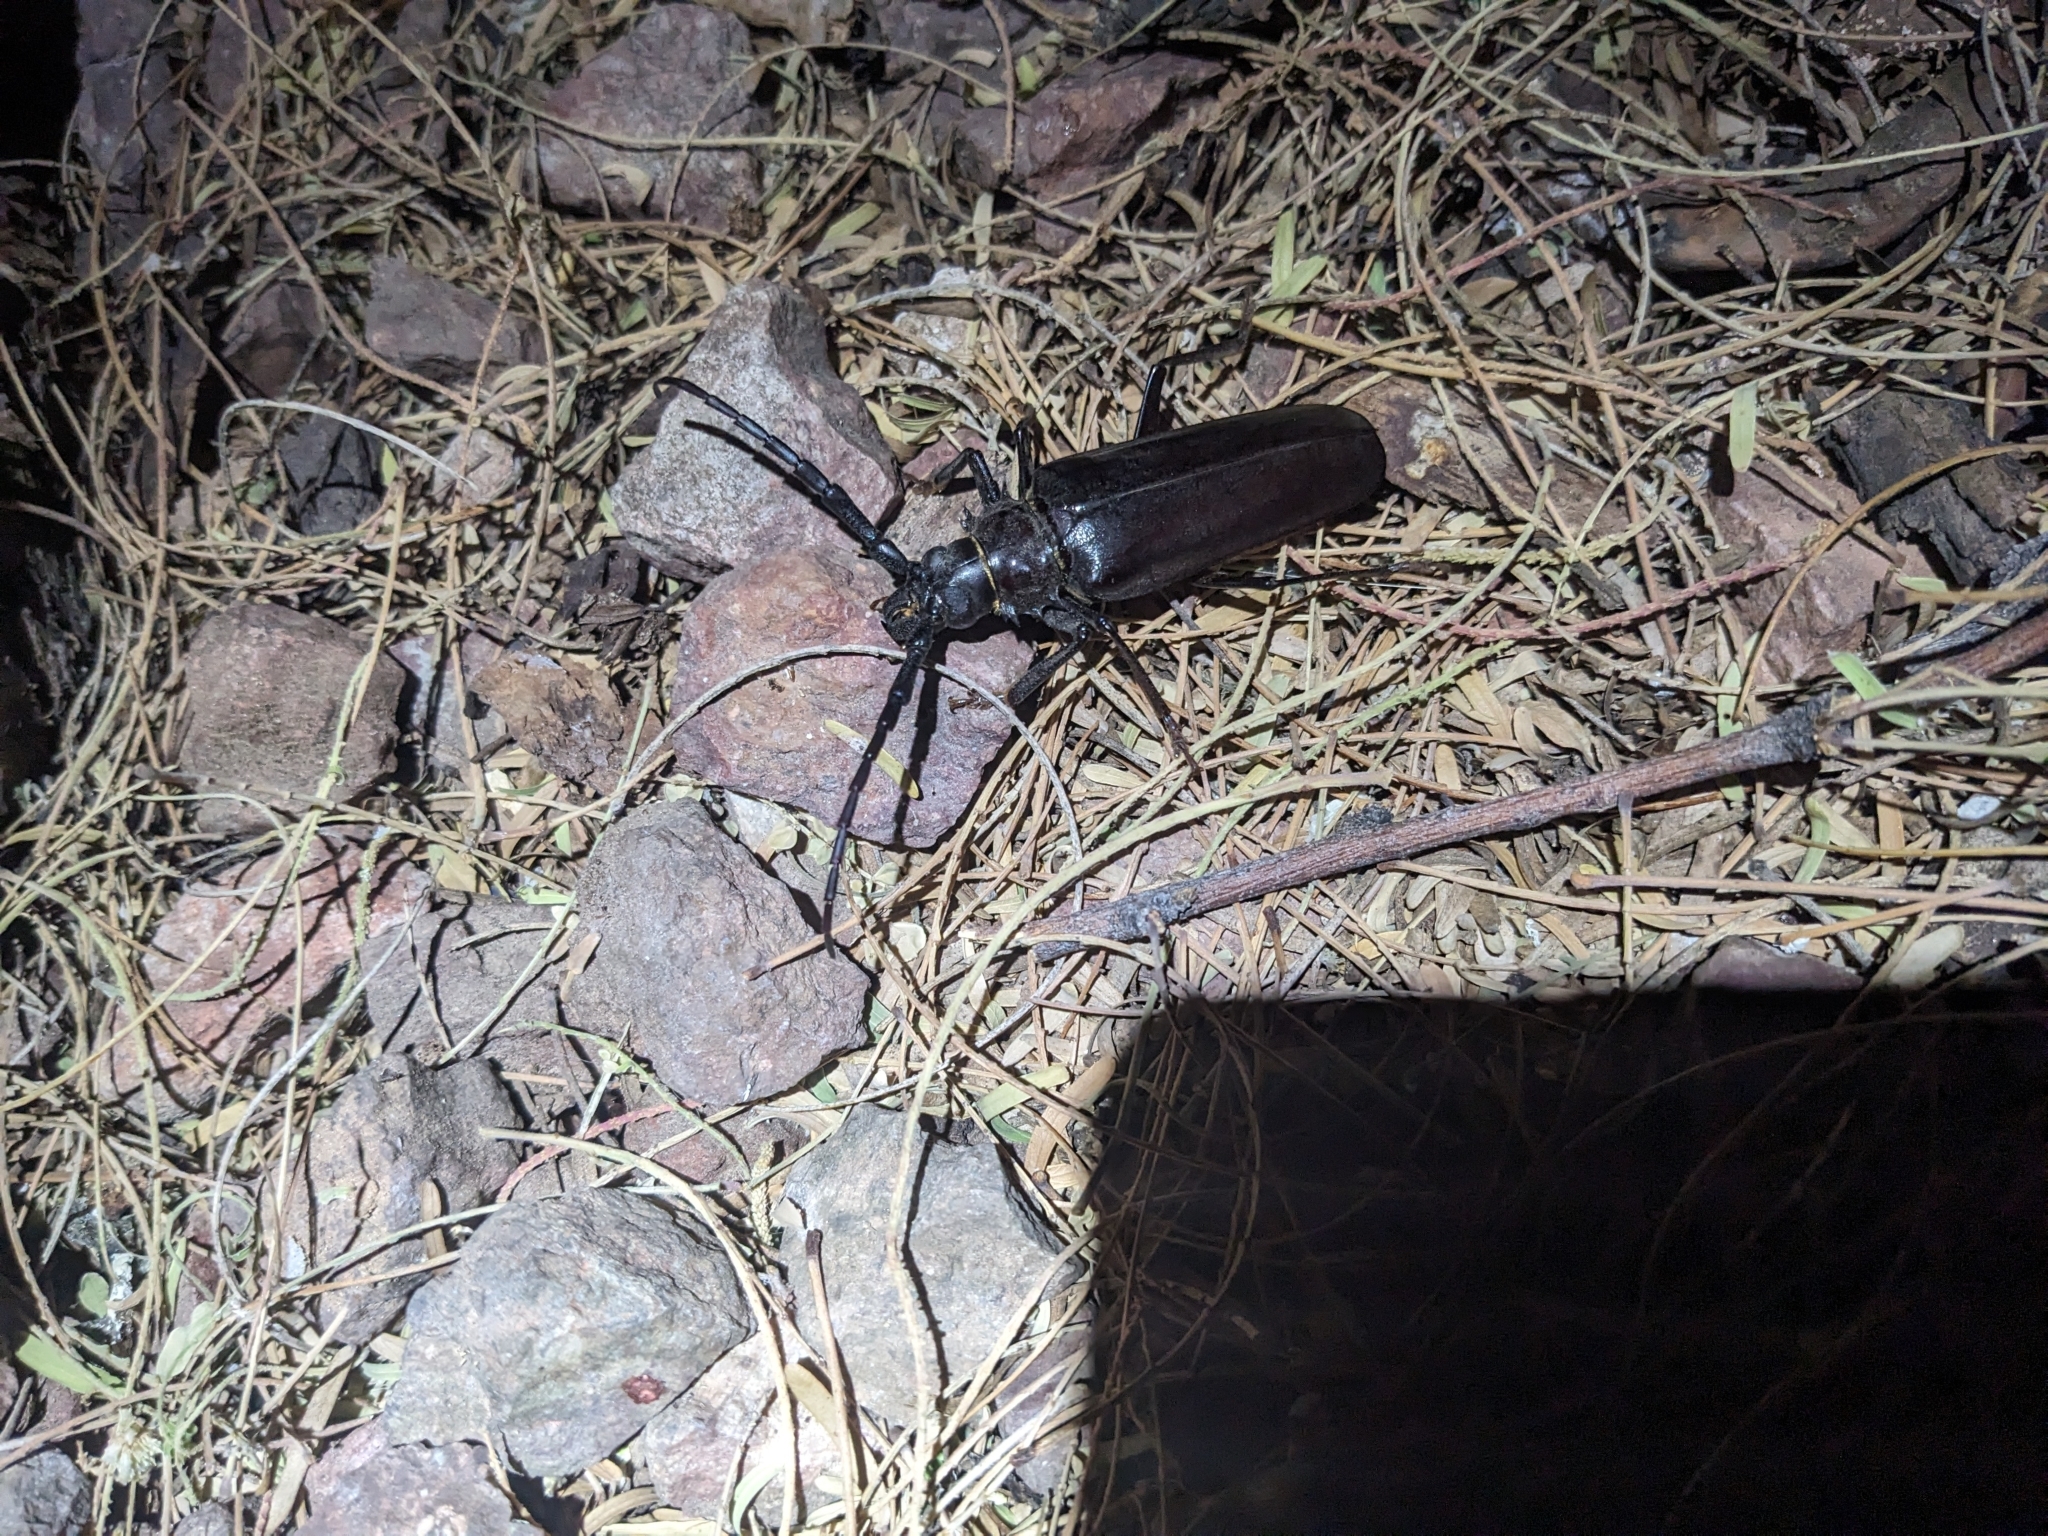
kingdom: Animalia
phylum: Arthropoda
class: Insecta
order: Coleoptera
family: Cerambycidae
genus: Derobrachus
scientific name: Derobrachus hovorei
